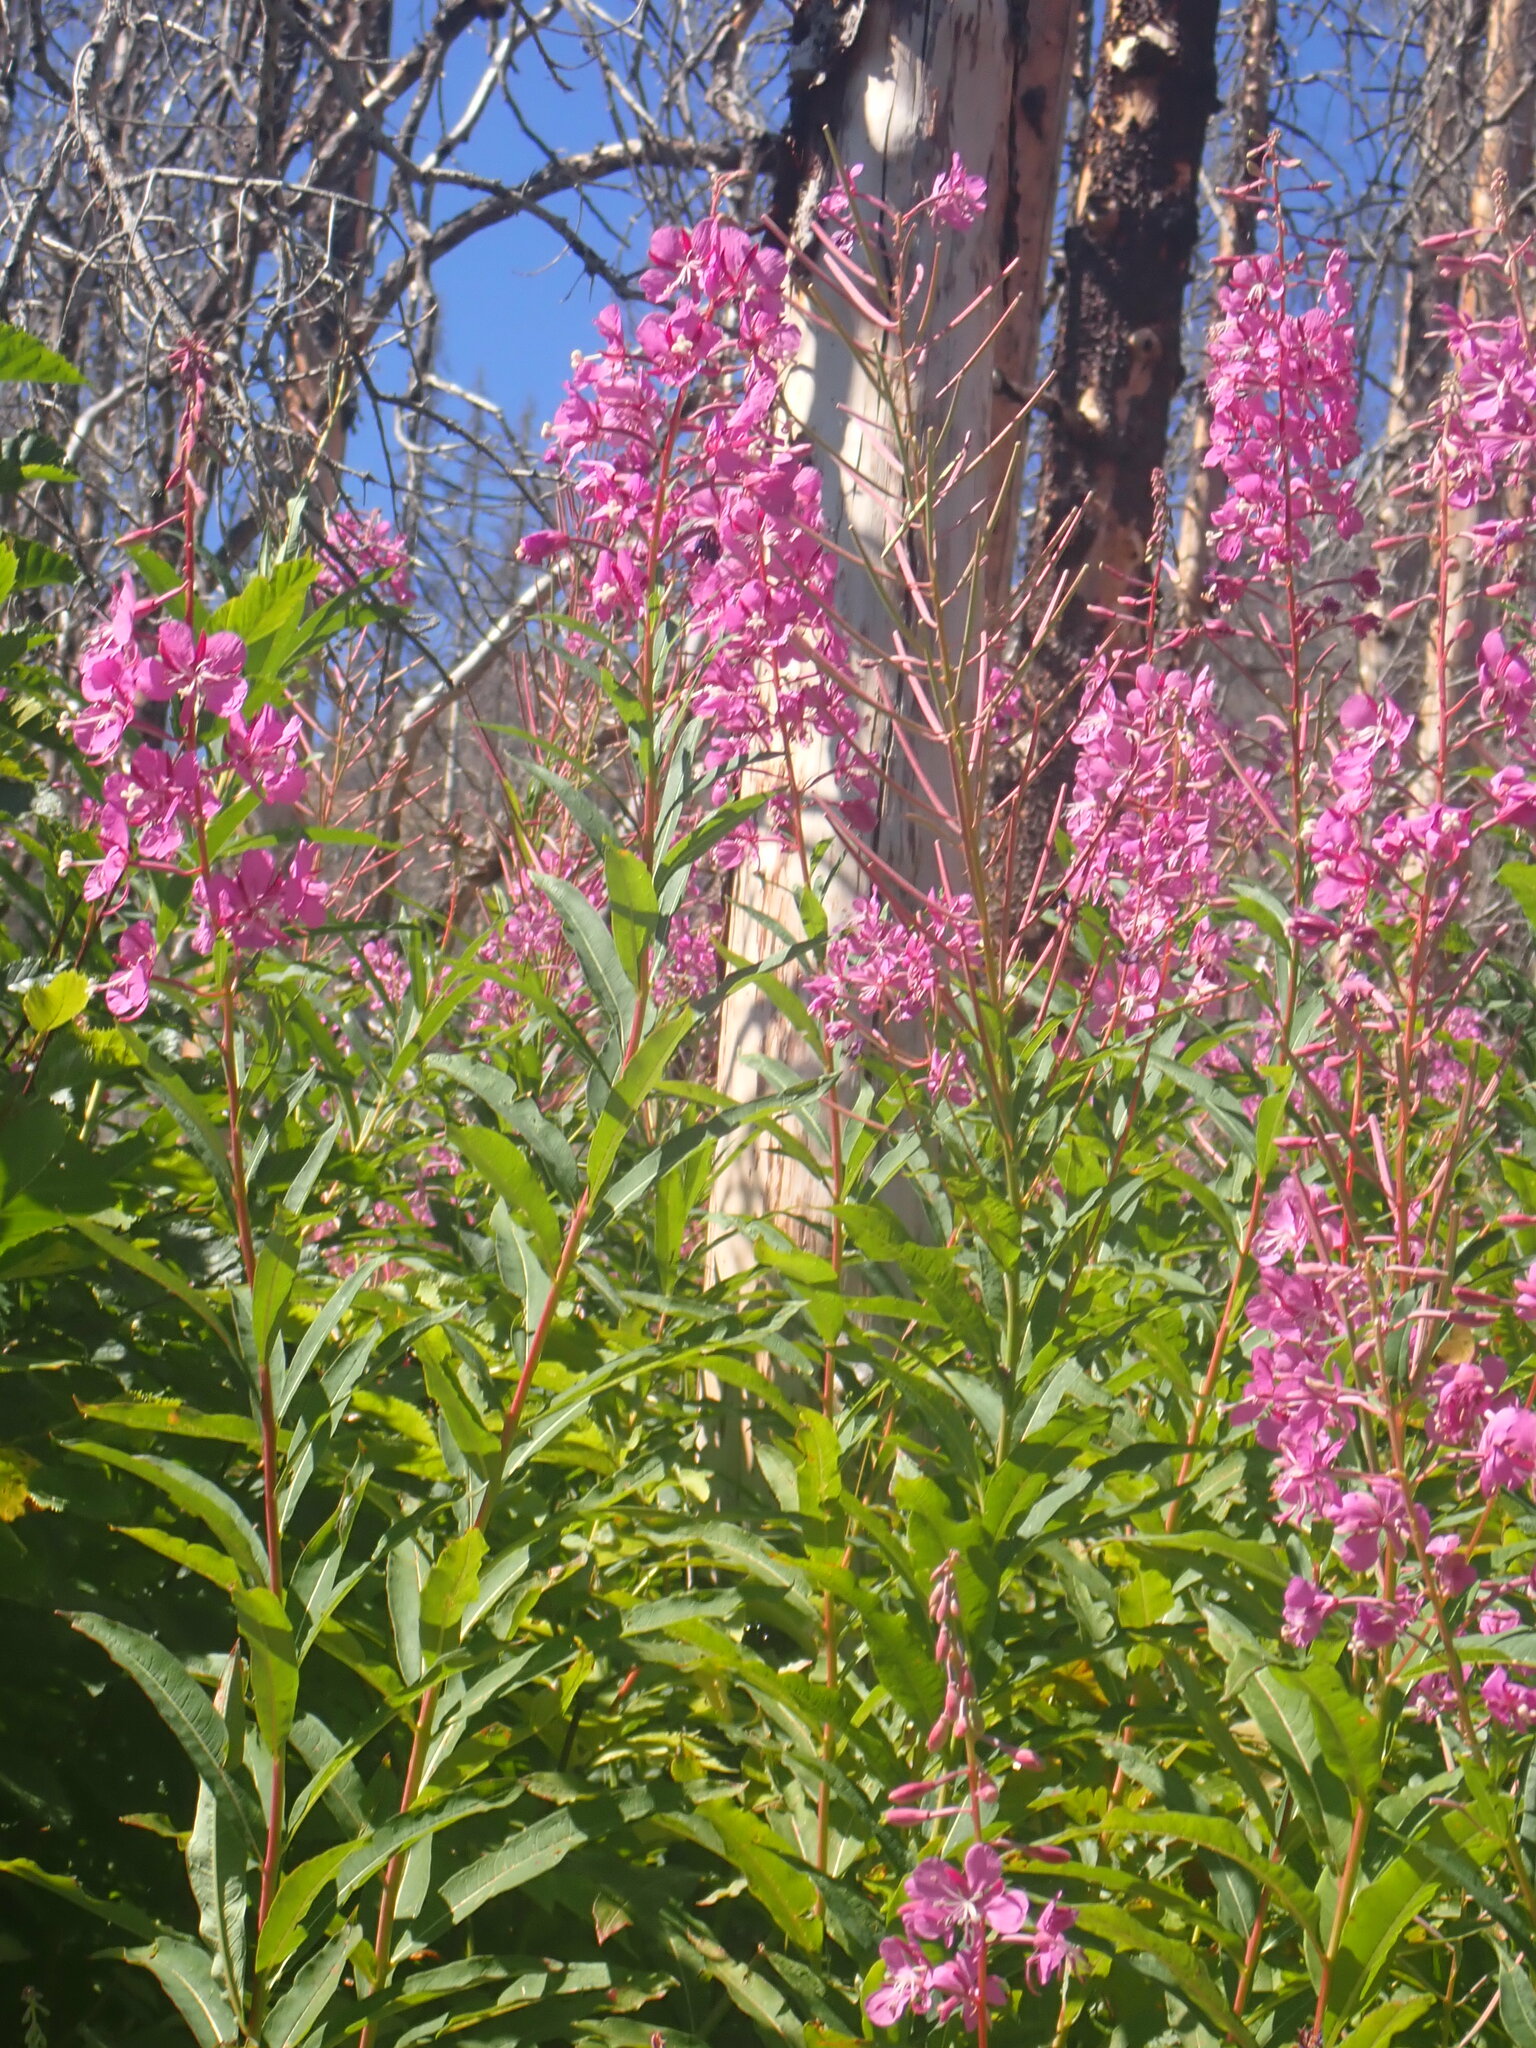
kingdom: Plantae
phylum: Tracheophyta
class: Magnoliopsida
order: Myrtales
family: Onagraceae
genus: Chamaenerion
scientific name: Chamaenerion angustifolium
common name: Fireweed
